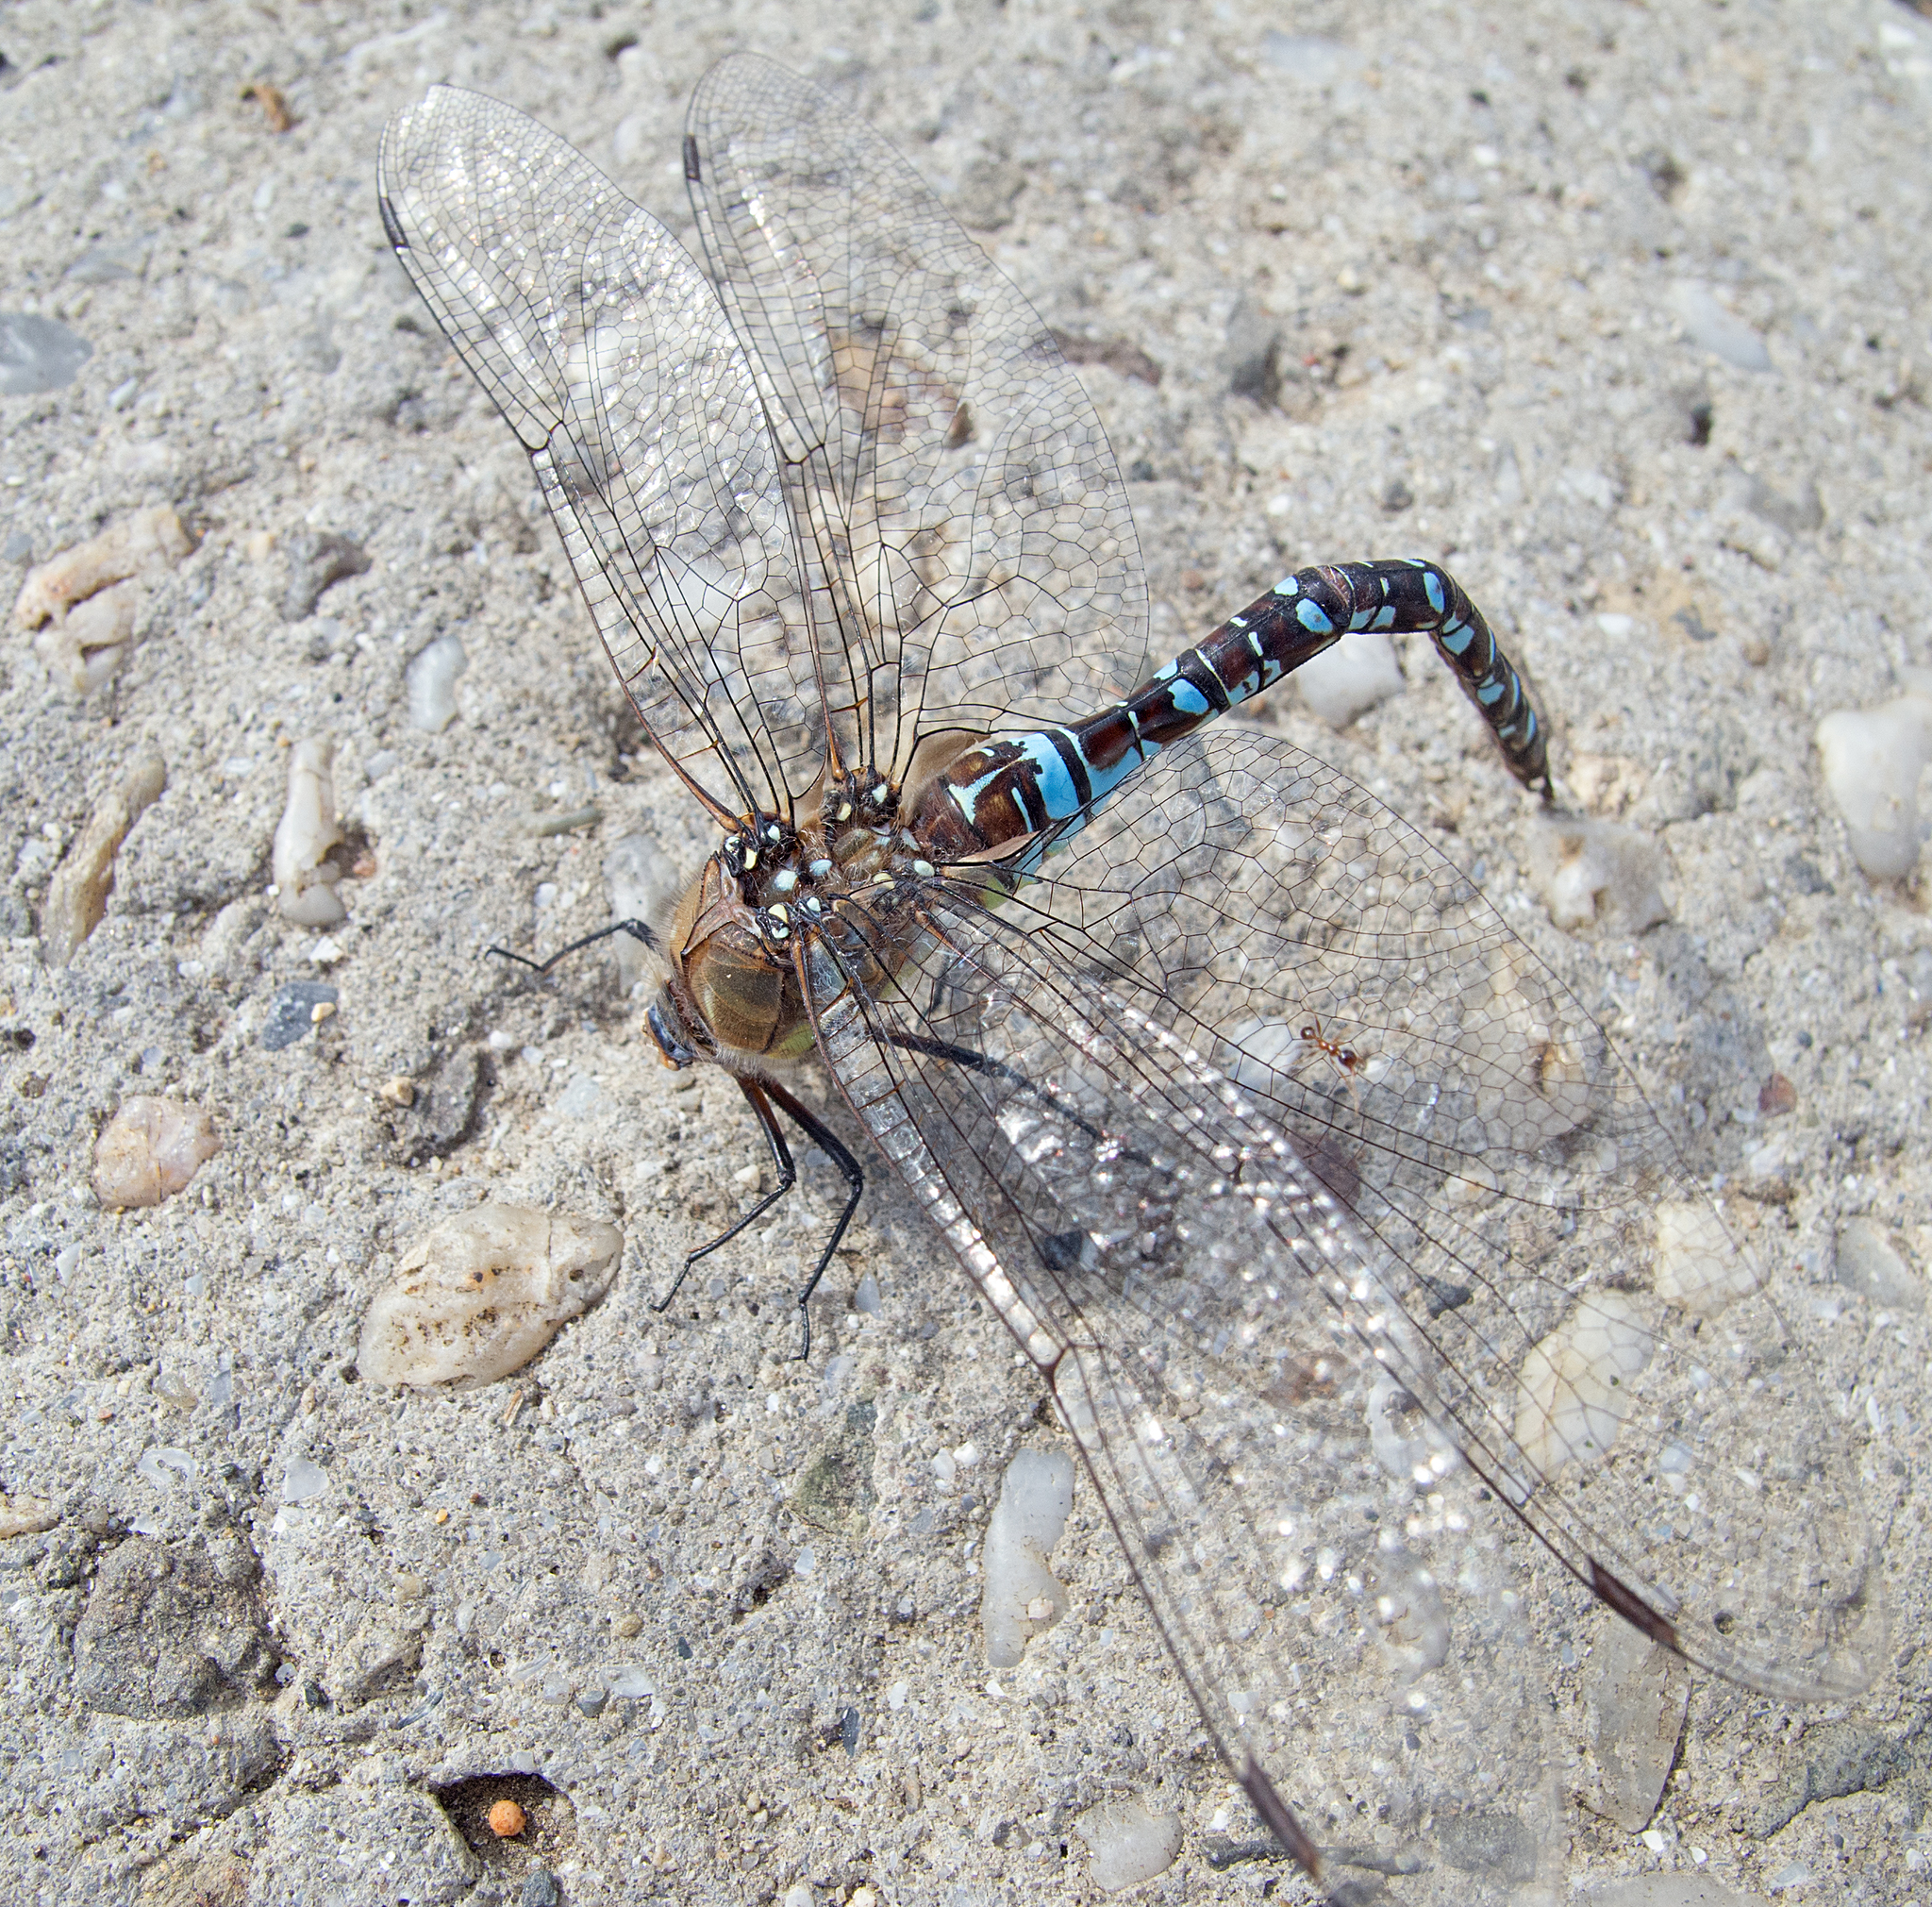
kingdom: Animalia
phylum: Arthropoda
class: Insecta
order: Odonata
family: Aeshnidae
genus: Aeshna
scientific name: Aeshna mixta
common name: Migrant hawker
